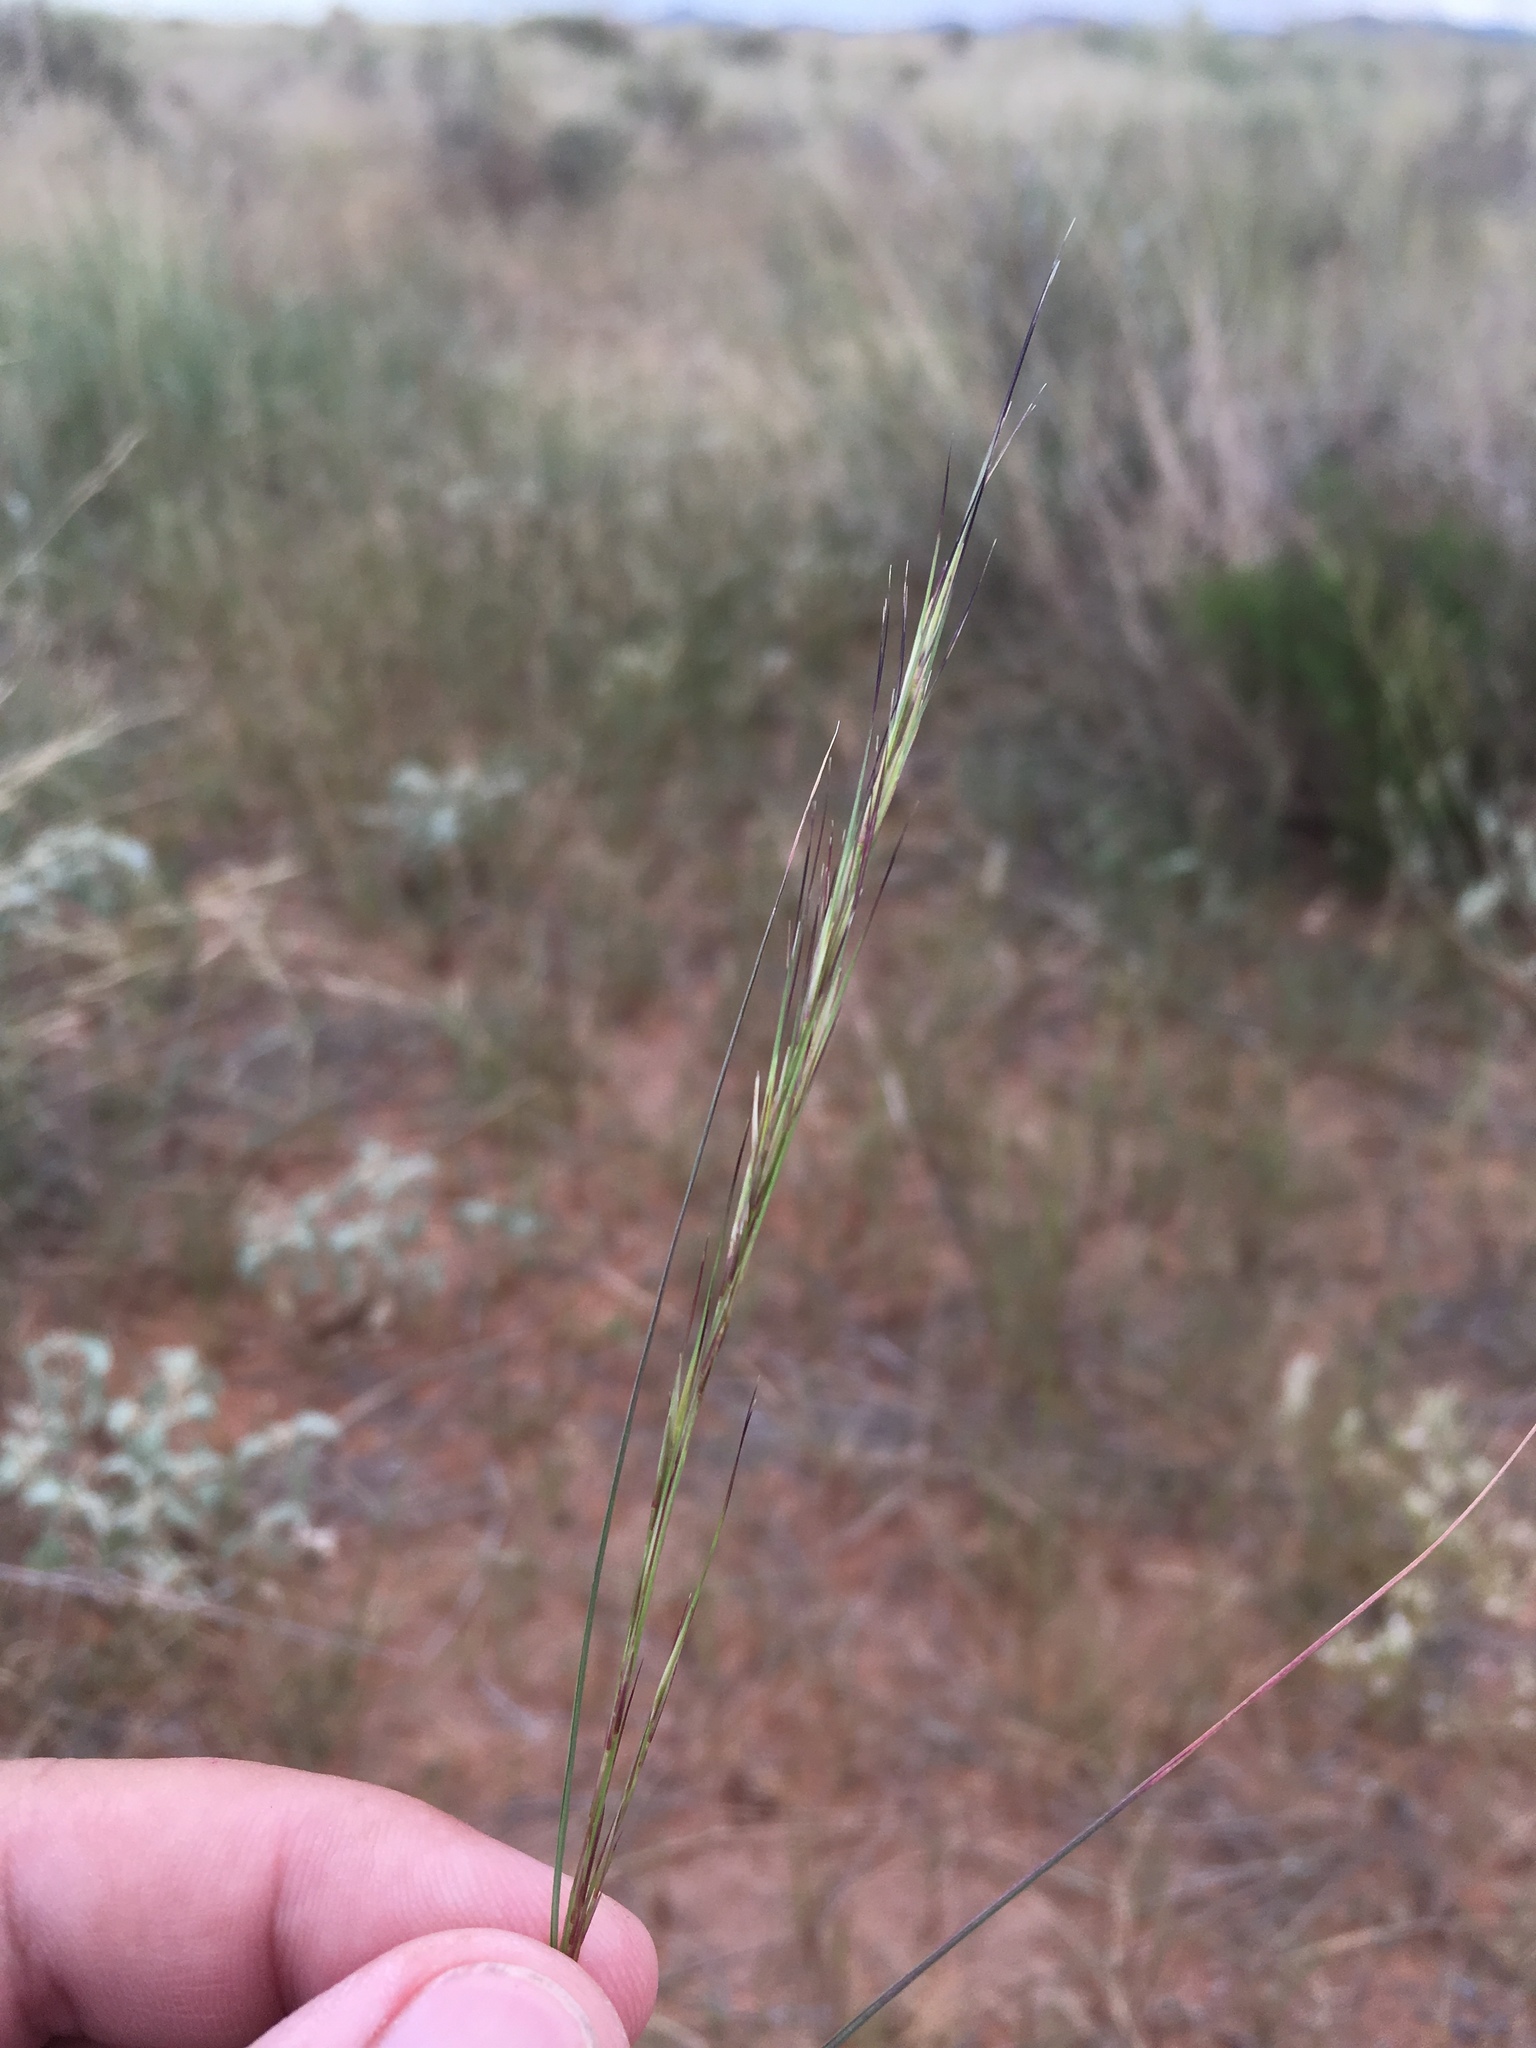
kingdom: Plantae
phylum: Tracheophyta
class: Liliopsida
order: Poales
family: Poaceae
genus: Aristida
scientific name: Aristida adscensionis
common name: Sixweeks threeawn
